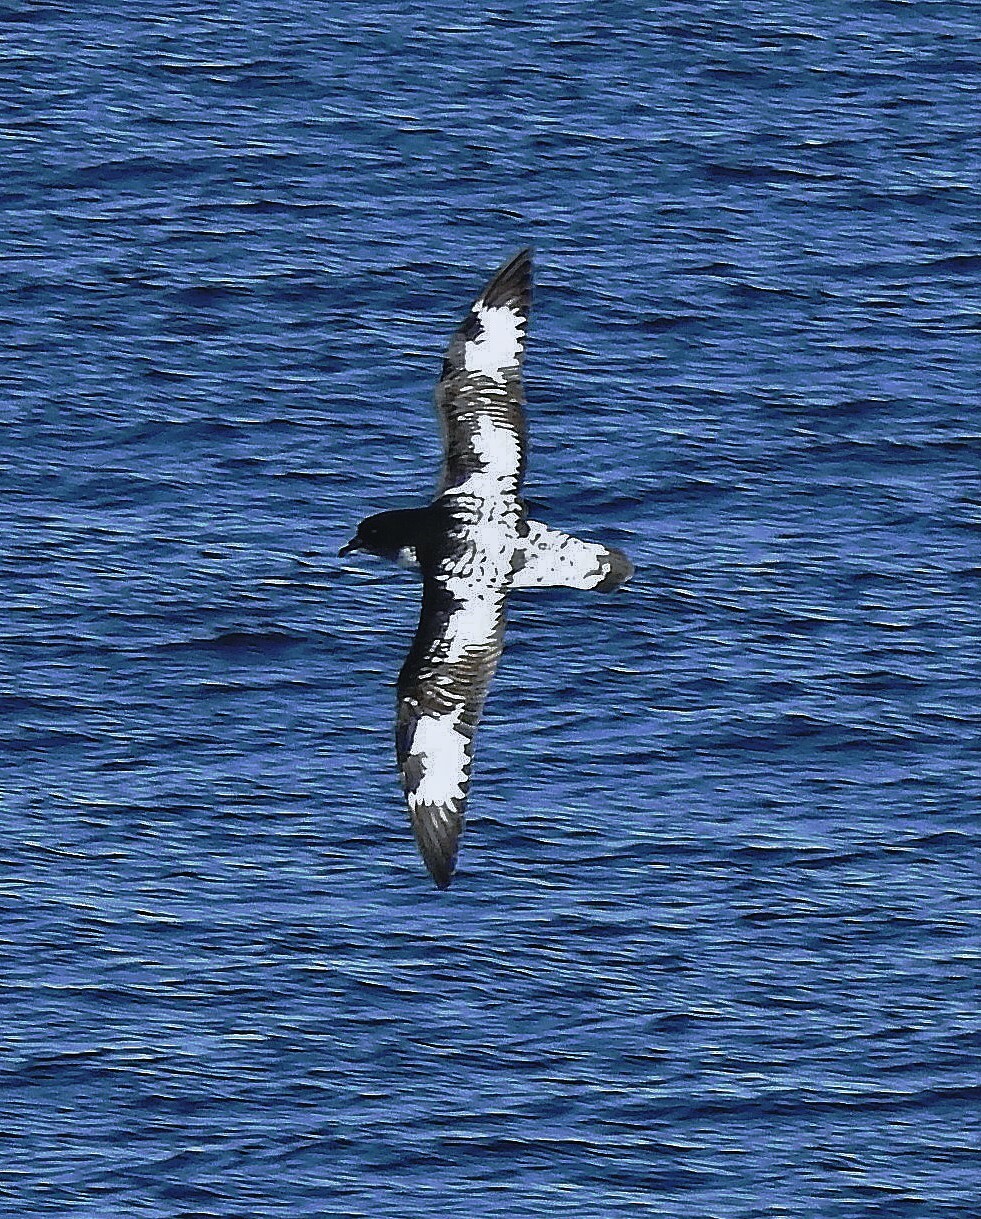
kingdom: Animalia
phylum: Chordata
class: Aves
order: Procellariiformes
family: Procellariidae
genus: Daption
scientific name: Daption capense
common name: Cape petrel
